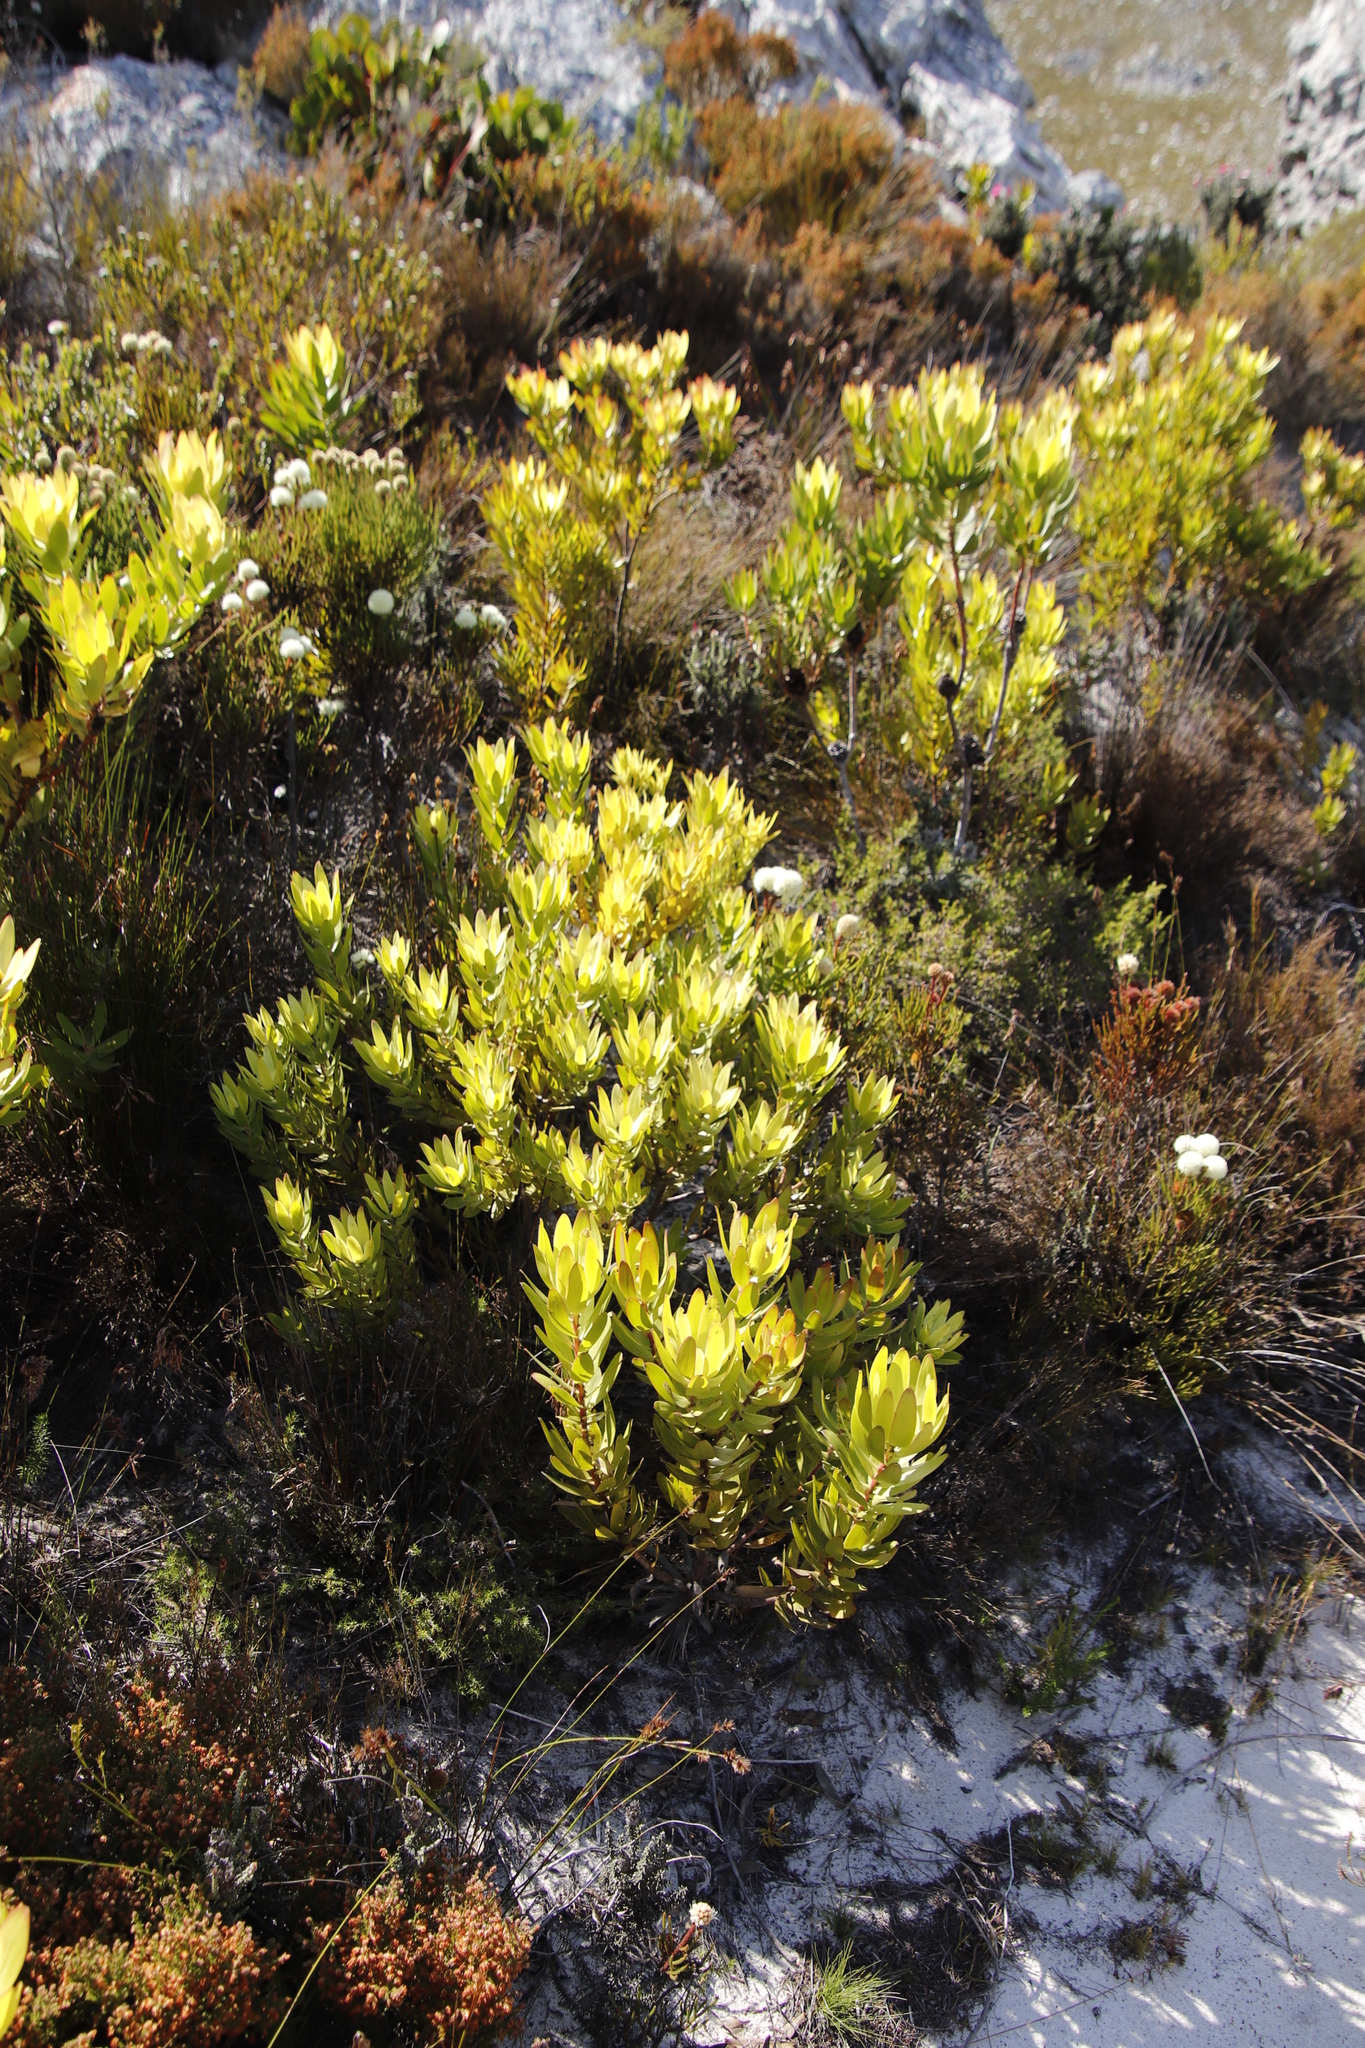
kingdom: Plantae
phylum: Tracheophyta
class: Magnoliopsida
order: Proteales
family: Proteaceae
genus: Leucadendron
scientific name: Leucadendron gandogeri
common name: Broad-leaf conebush
